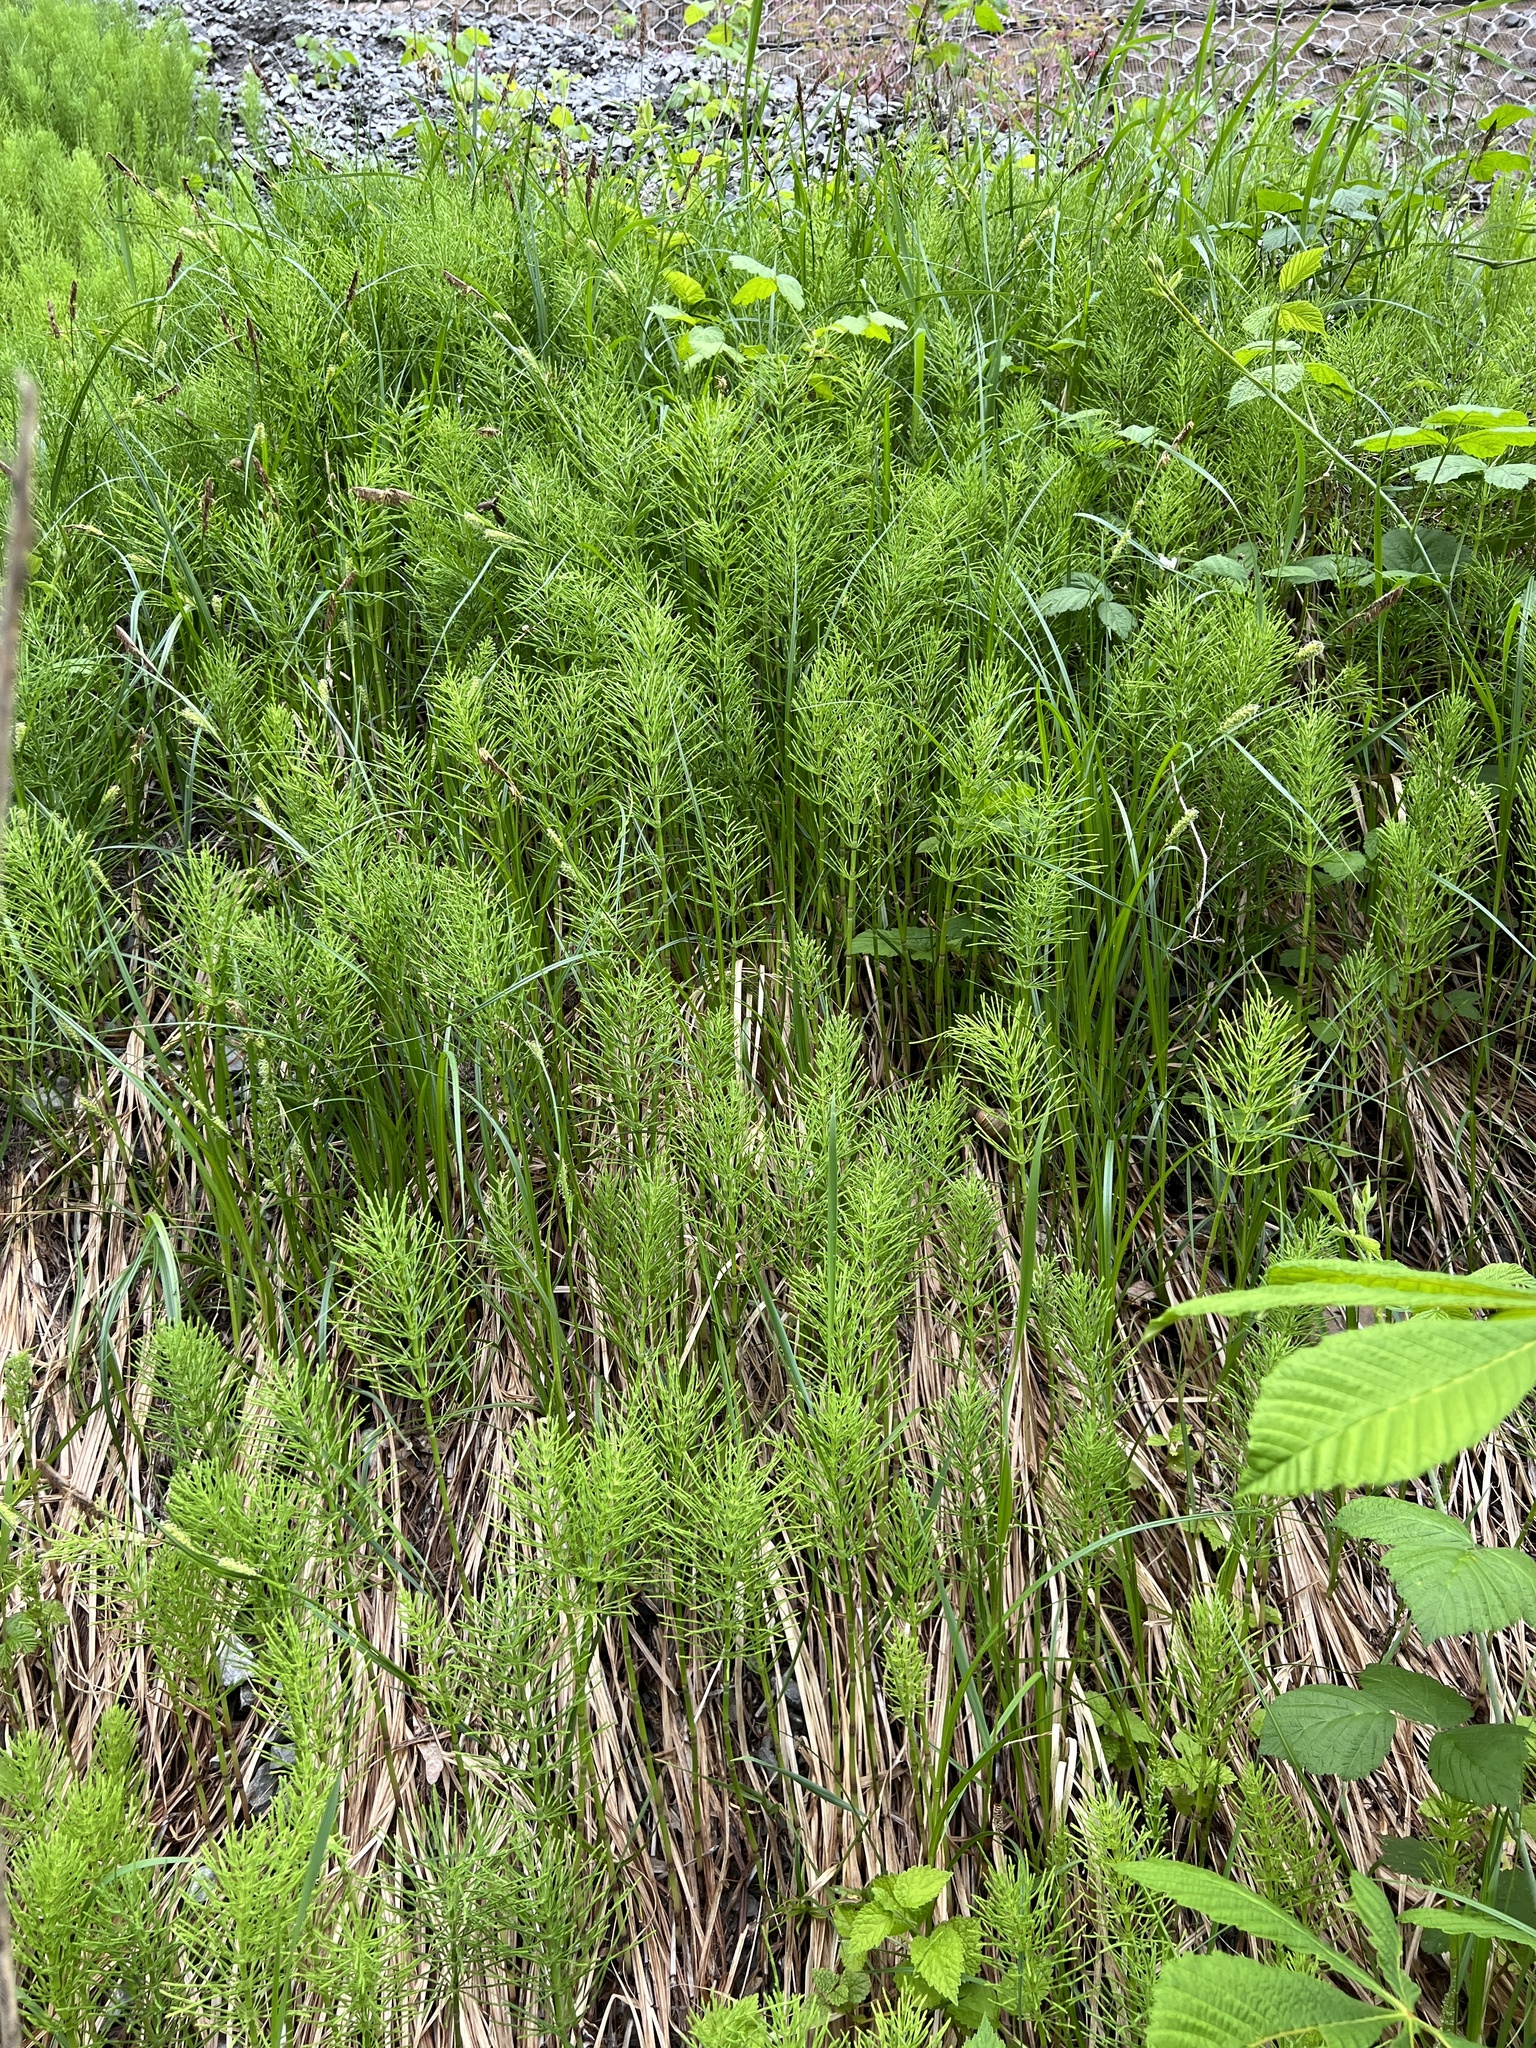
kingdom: Plantae
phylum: Tracheophyta
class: Polypodiopsida
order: Equisetales
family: Equisetaceae
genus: Equisetum
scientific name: Equisetum arvense
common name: Field horsetail
